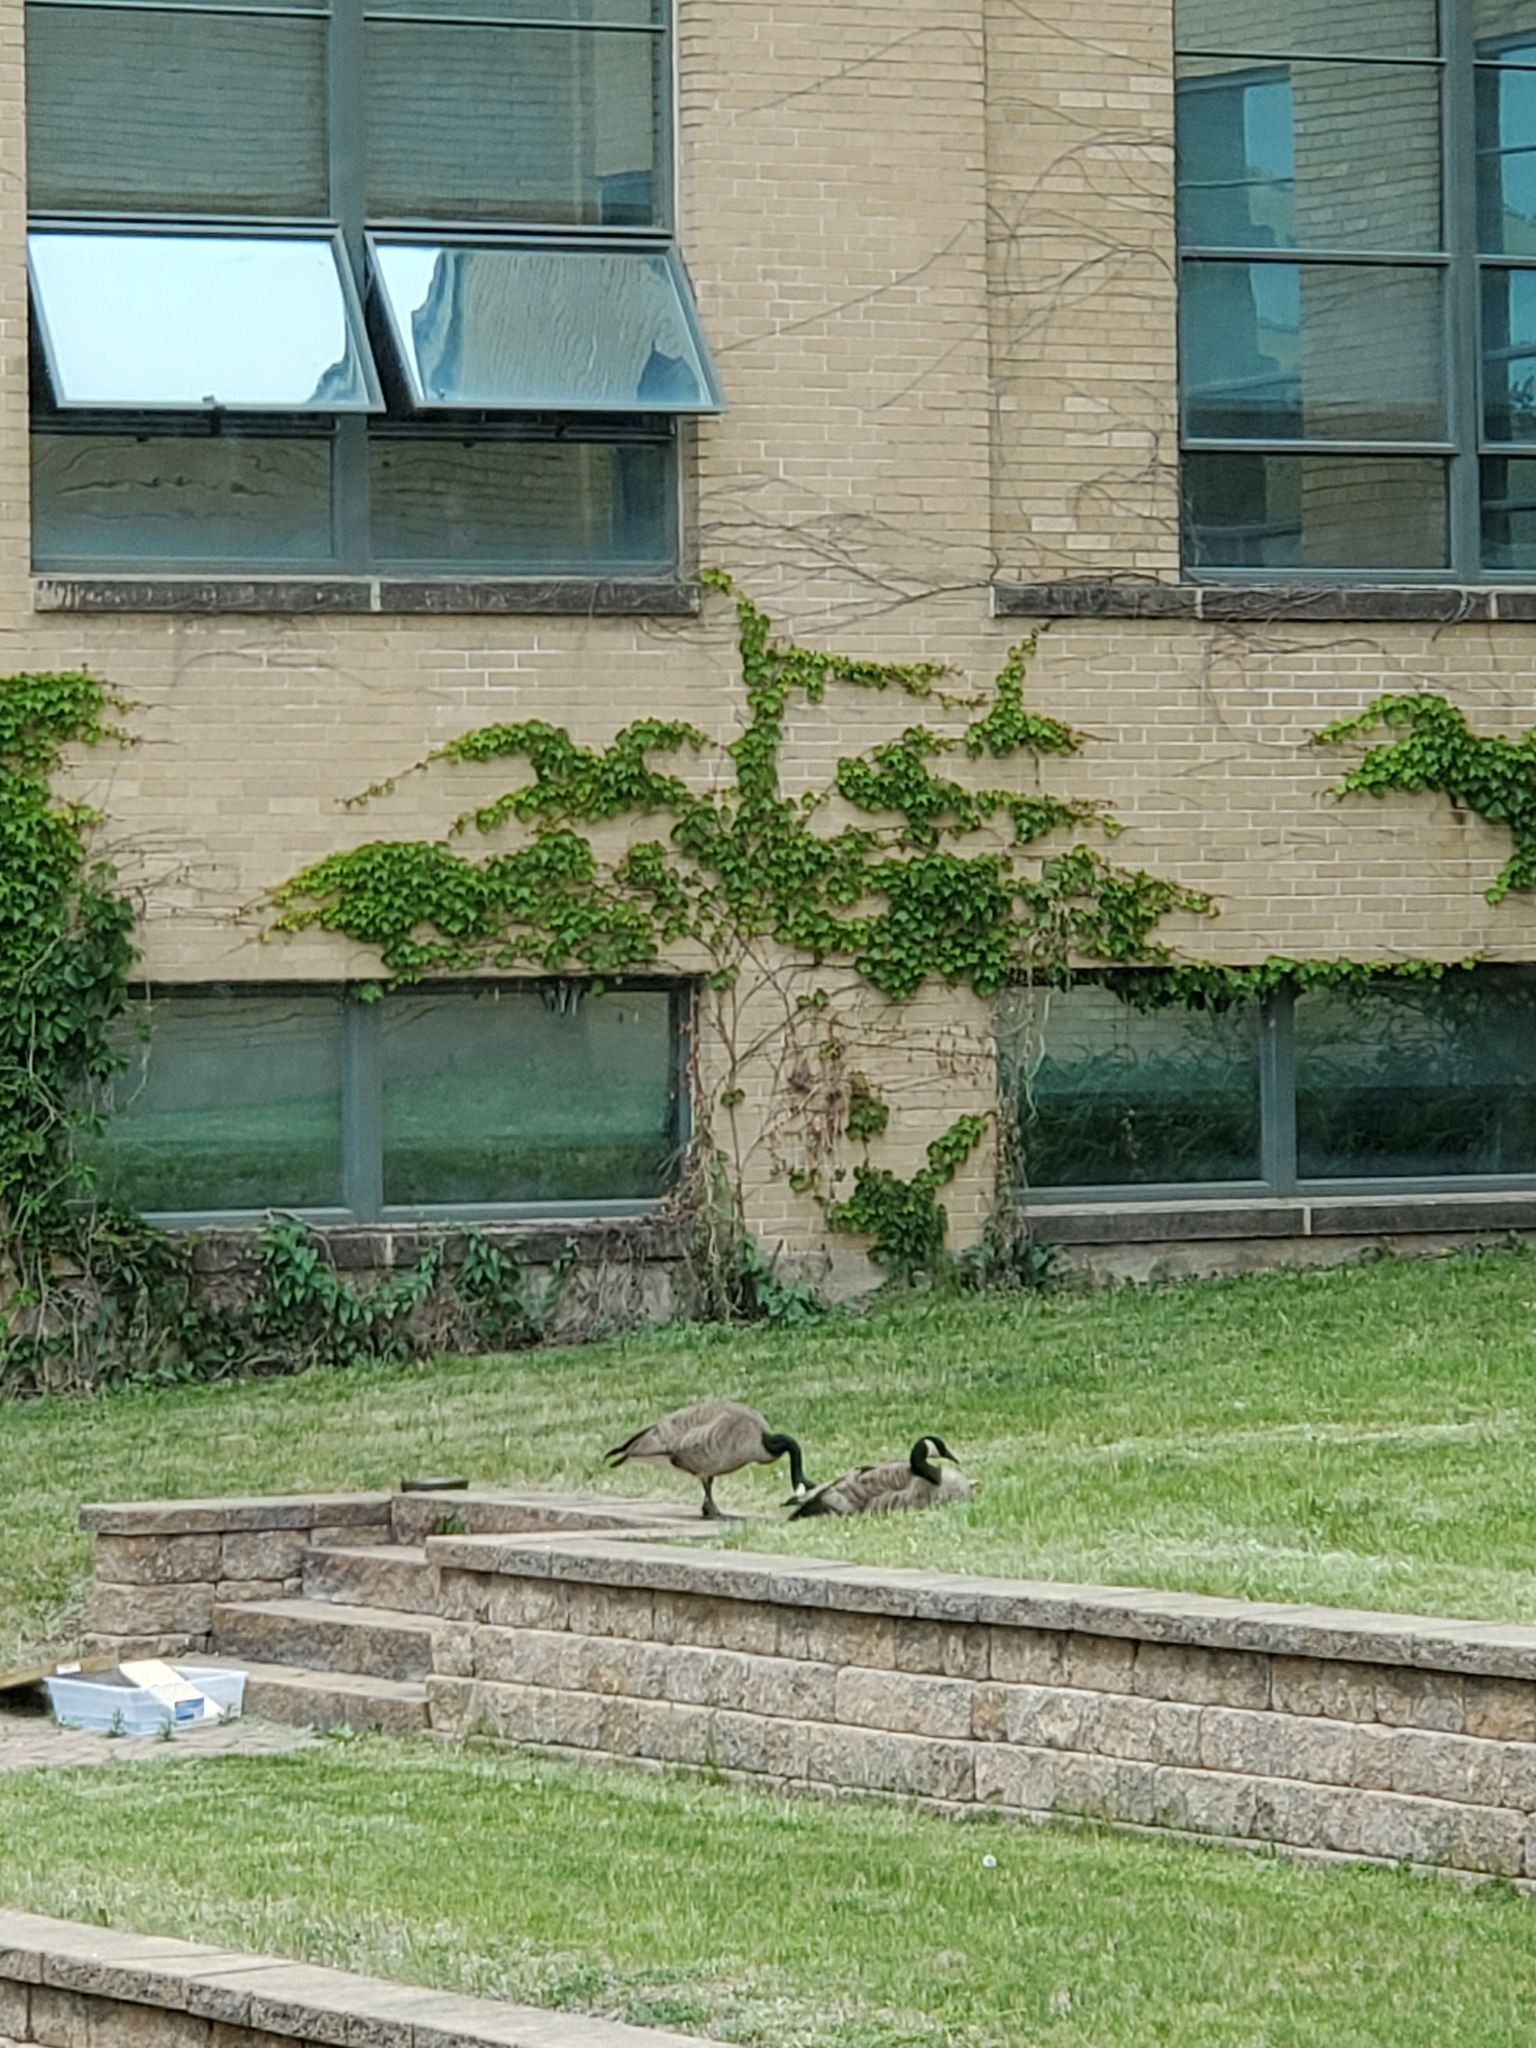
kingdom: Animalia
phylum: Chordata
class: Aves
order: Anseriformes
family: Anatidae
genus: Branta
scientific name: Branta canadensis
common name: Canada goose
